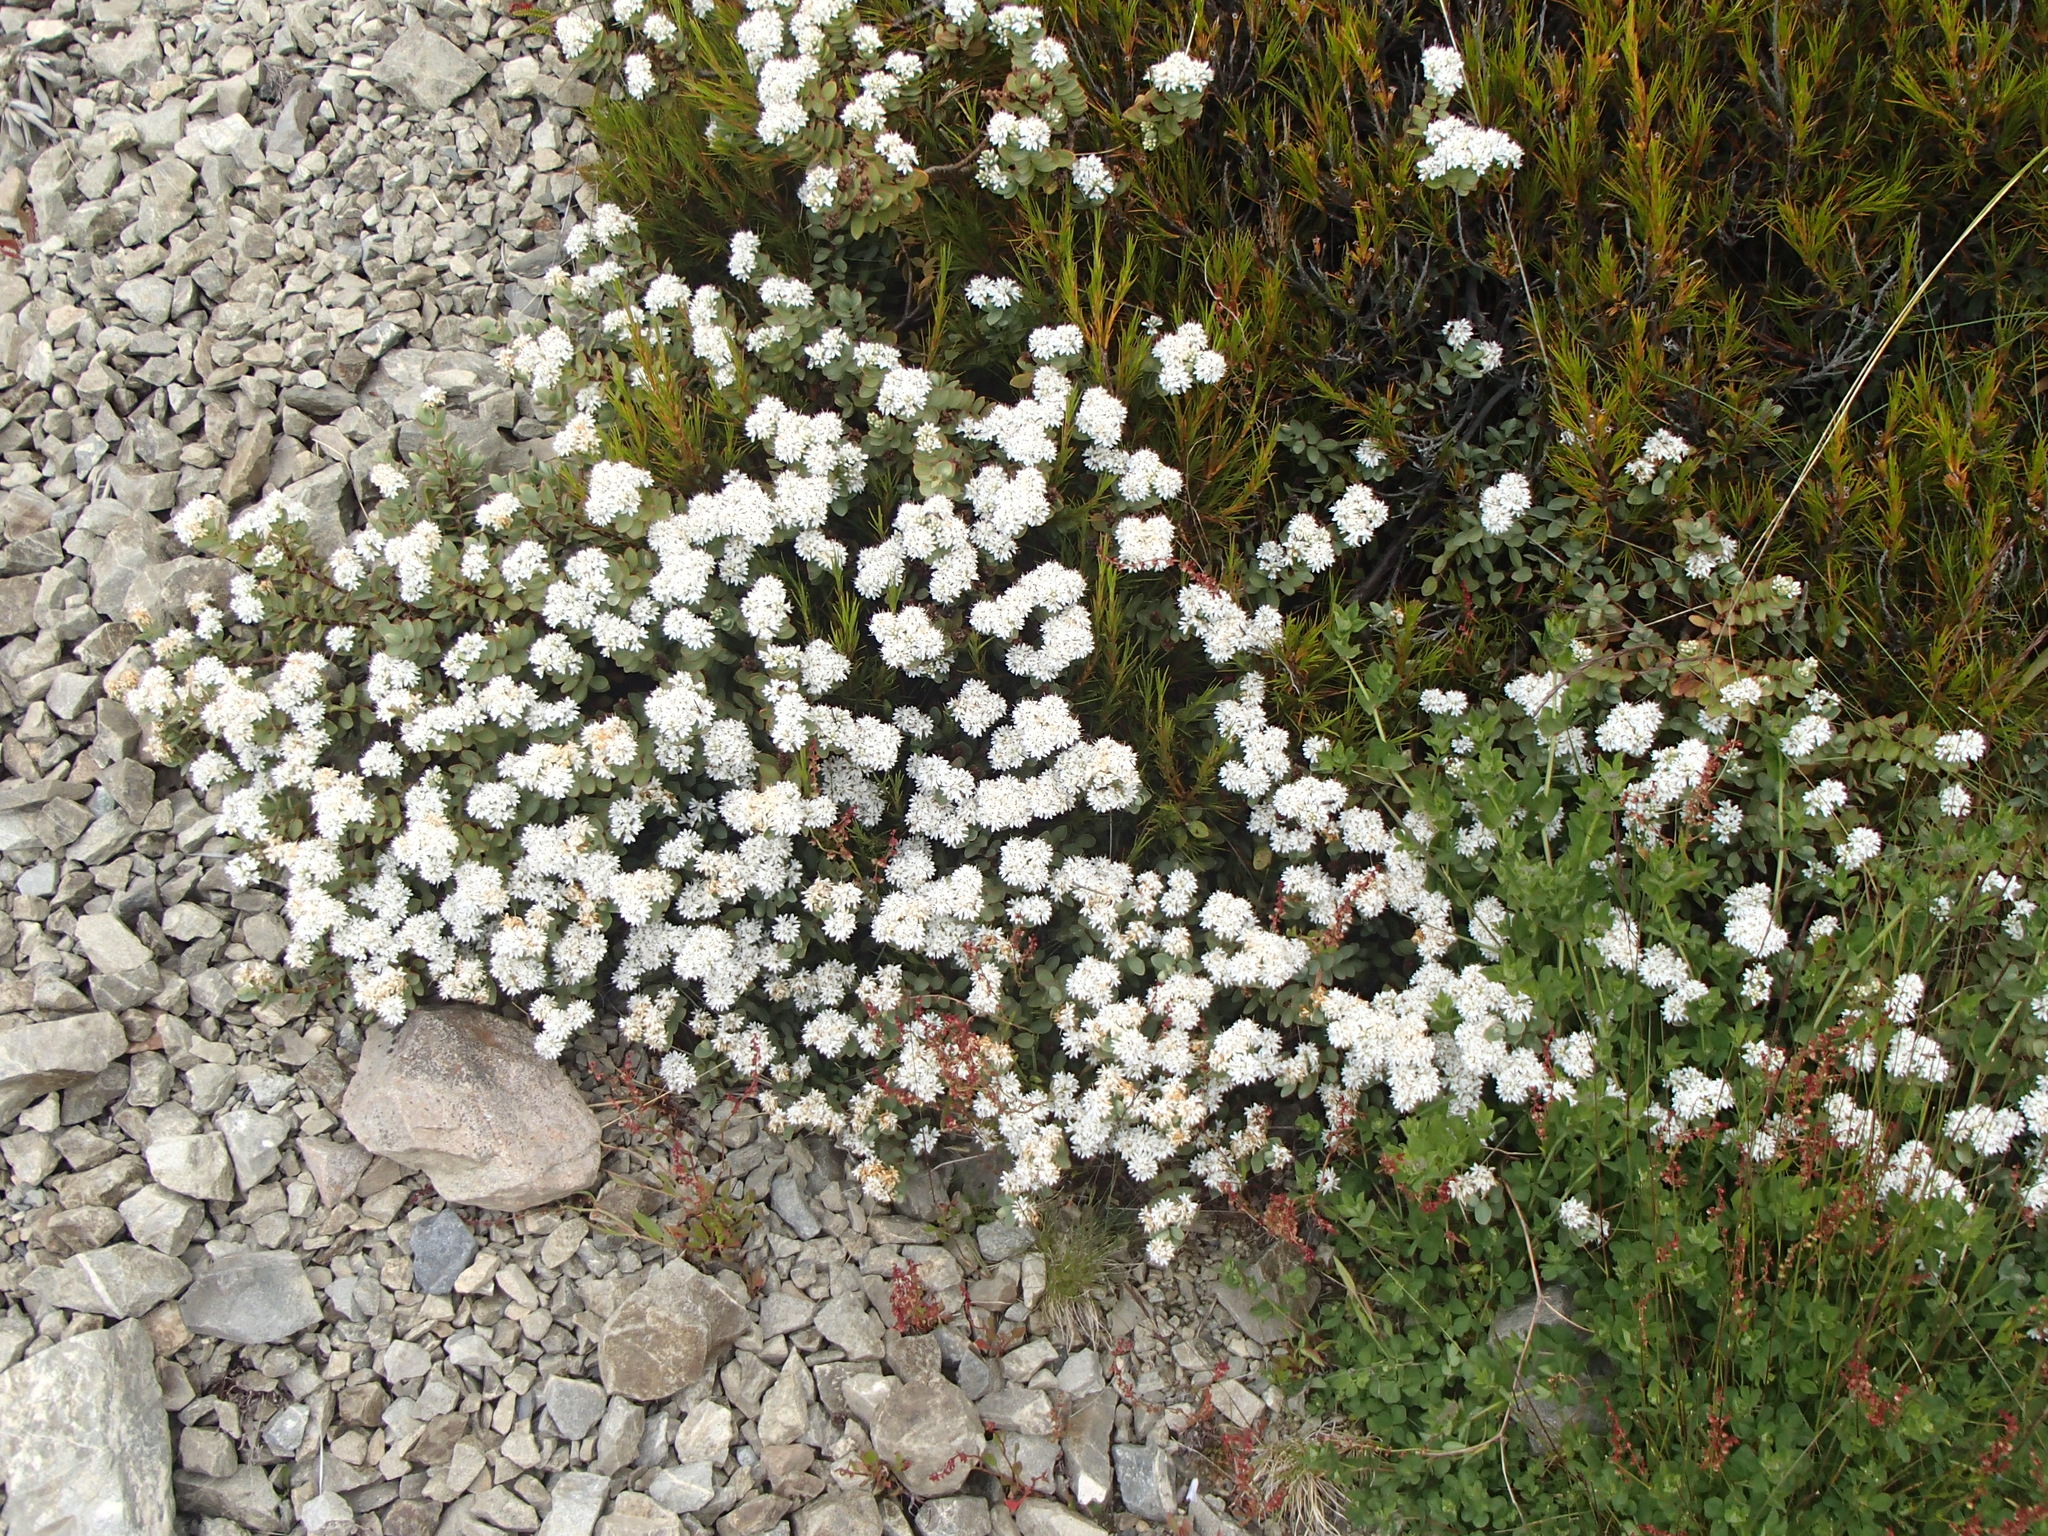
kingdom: Plantae
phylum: Tracheophyta
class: Magnoliopsida
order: Lamiales
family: Plantaginaceae
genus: Veronica
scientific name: Veronica pinguifolia
